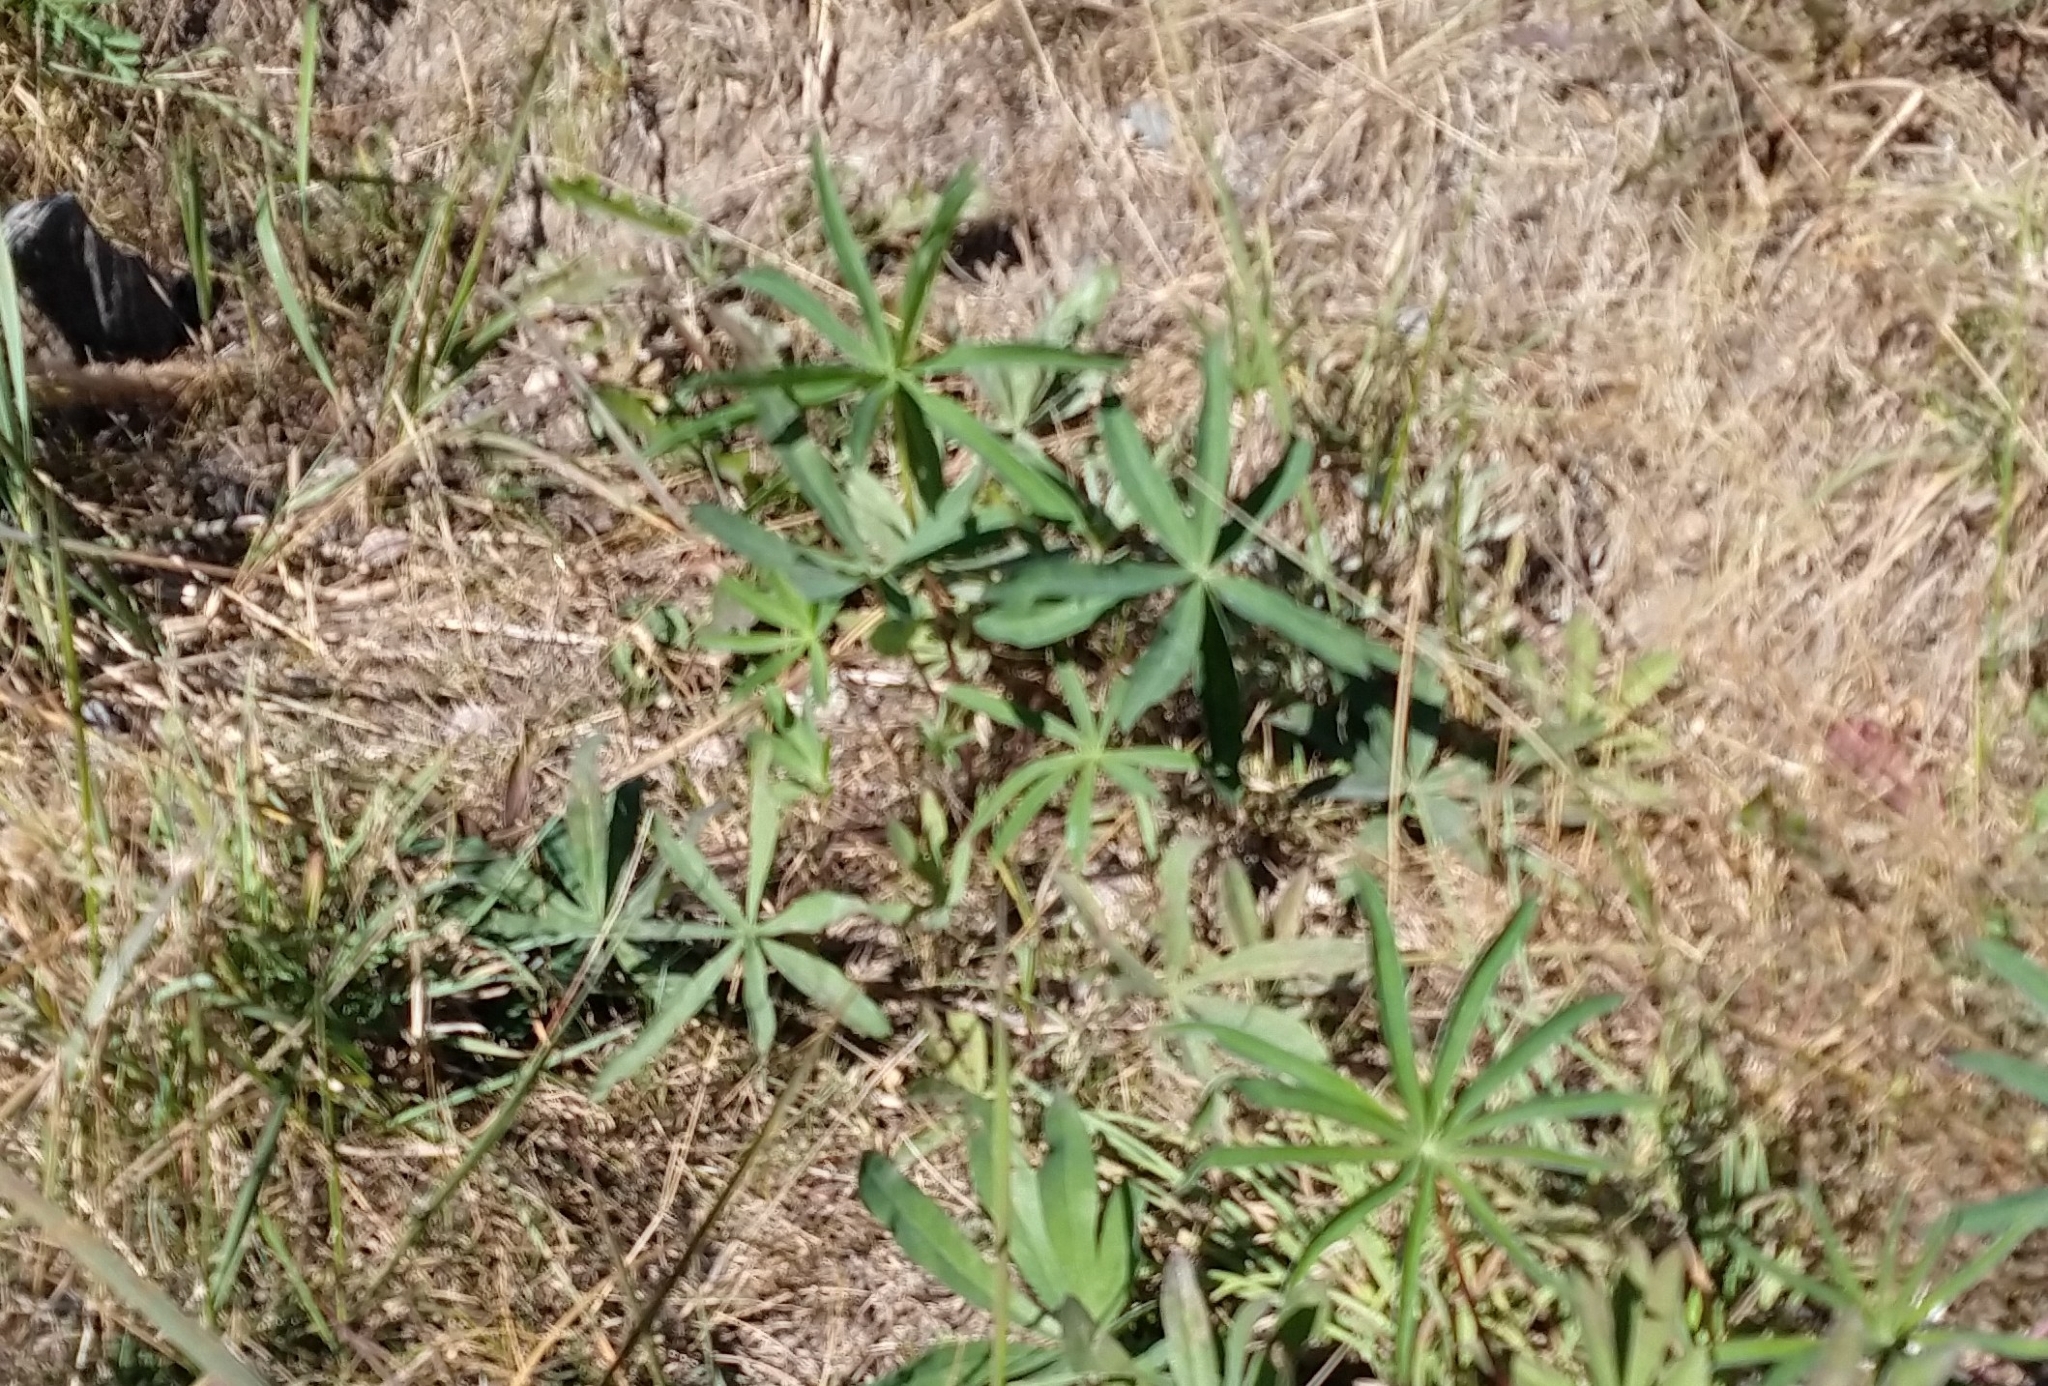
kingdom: Plantae
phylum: Tracheophyta
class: Magnoliopsida
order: Fabales
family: Fabaceae
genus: Lupinus
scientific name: Lupinus polyphyllus
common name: Garden lupin
